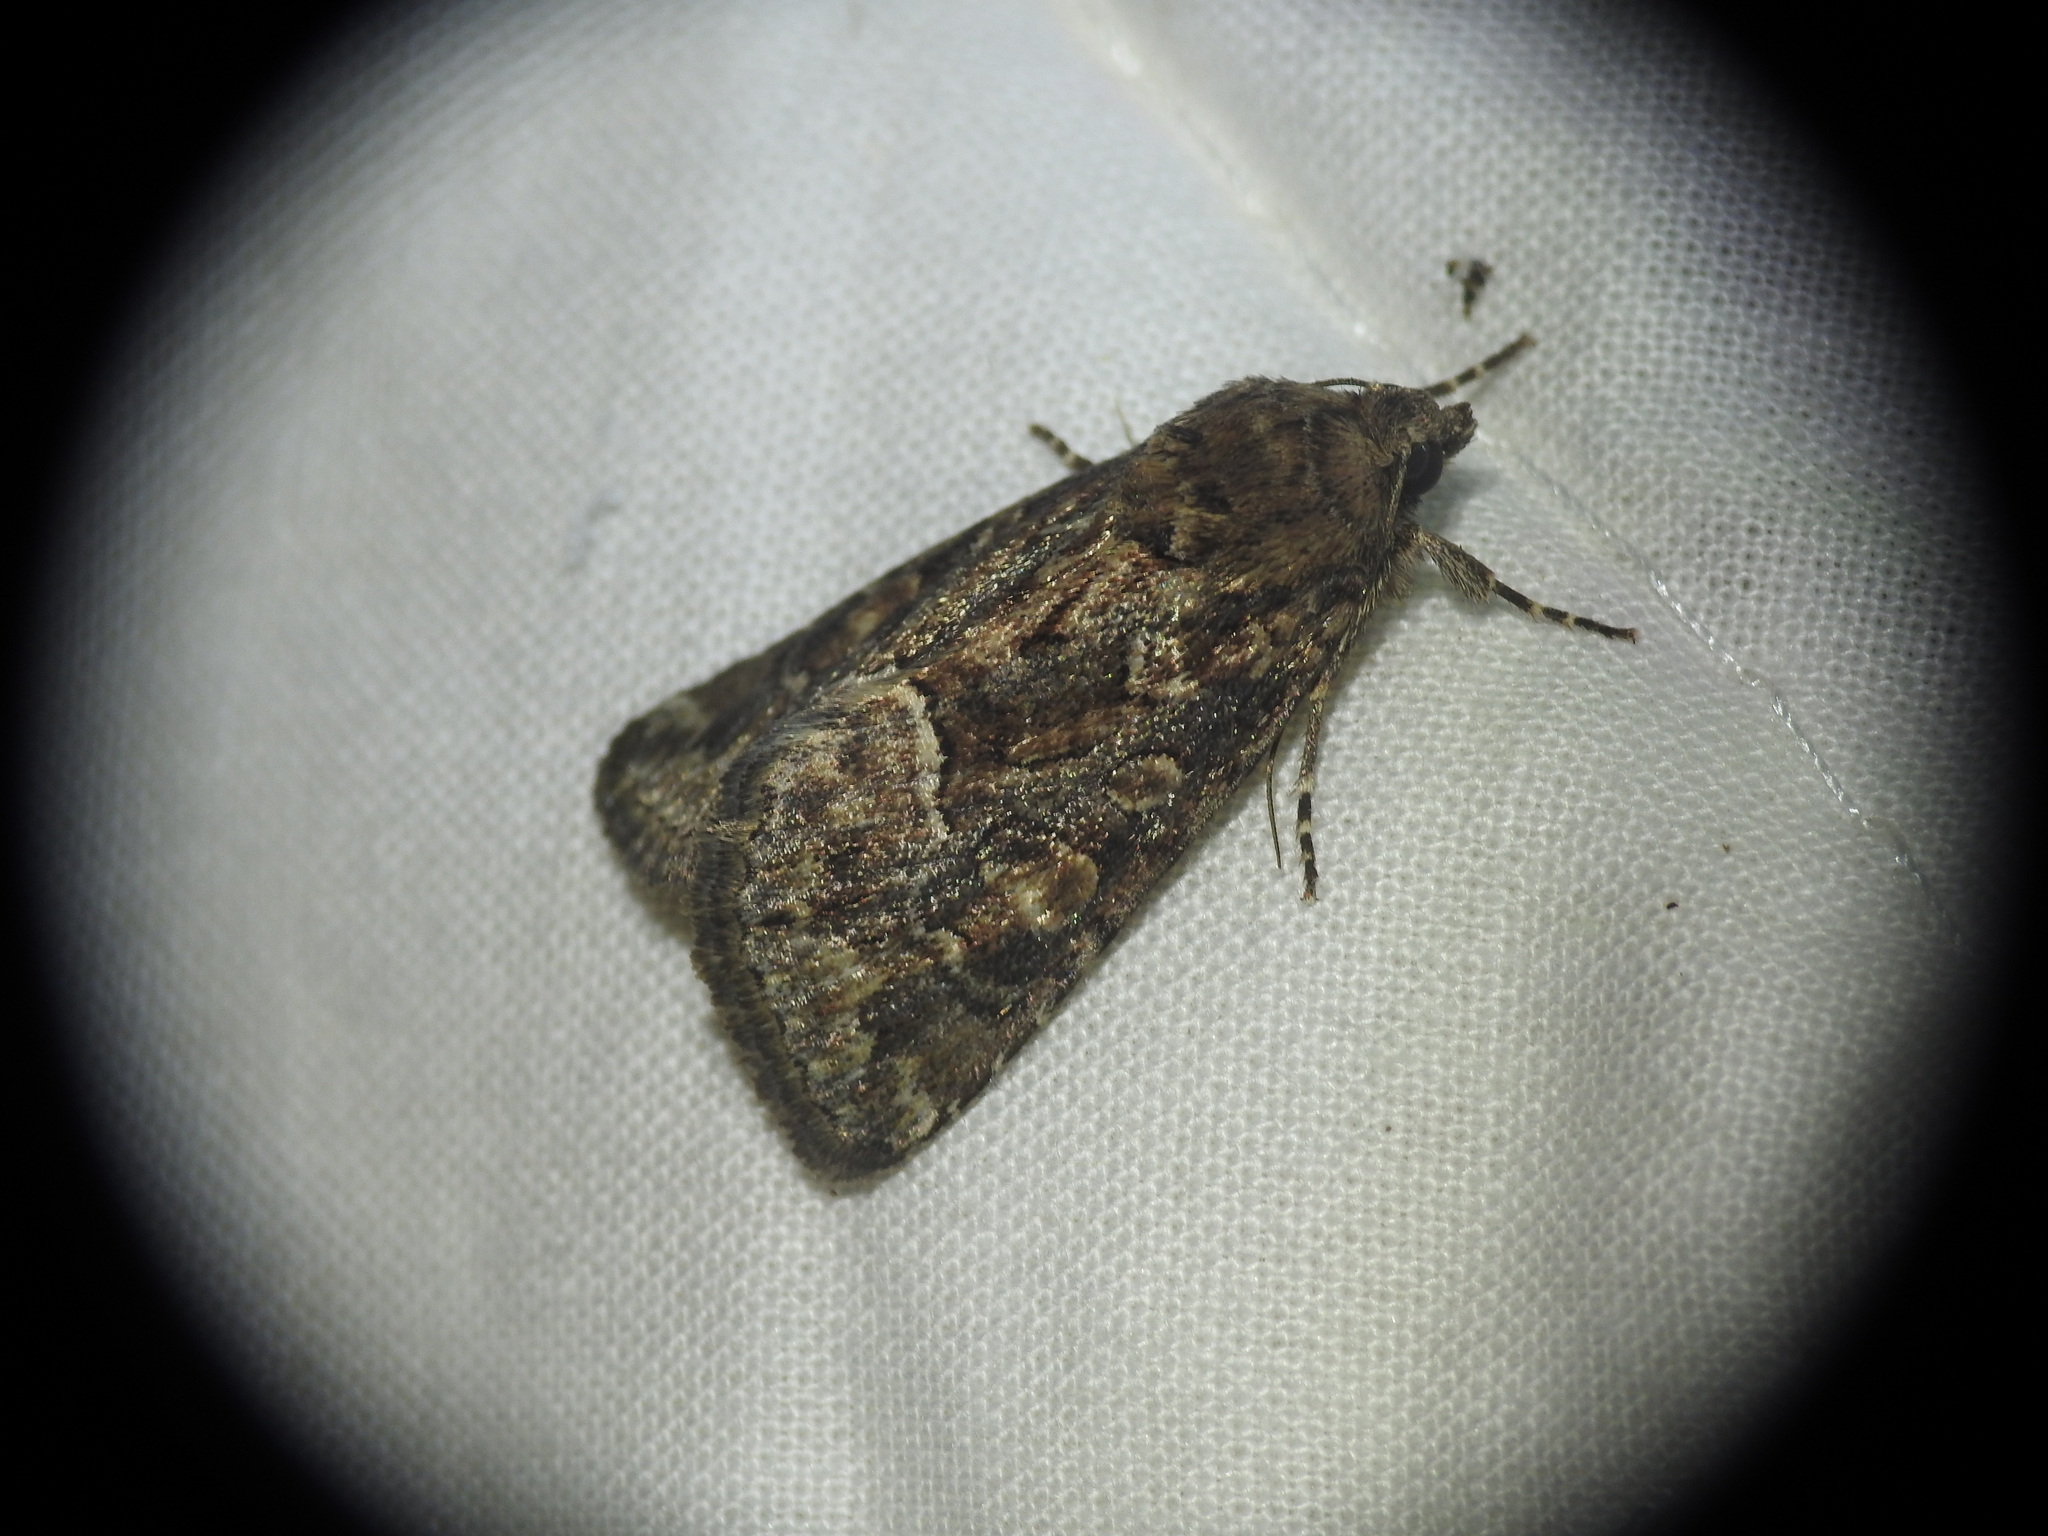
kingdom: Animalia
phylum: Arthropoda
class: Insecta
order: Lepidoptera
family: Noctuidae
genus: Thalpophila
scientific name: Thalpophila matura
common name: Straw underwing
